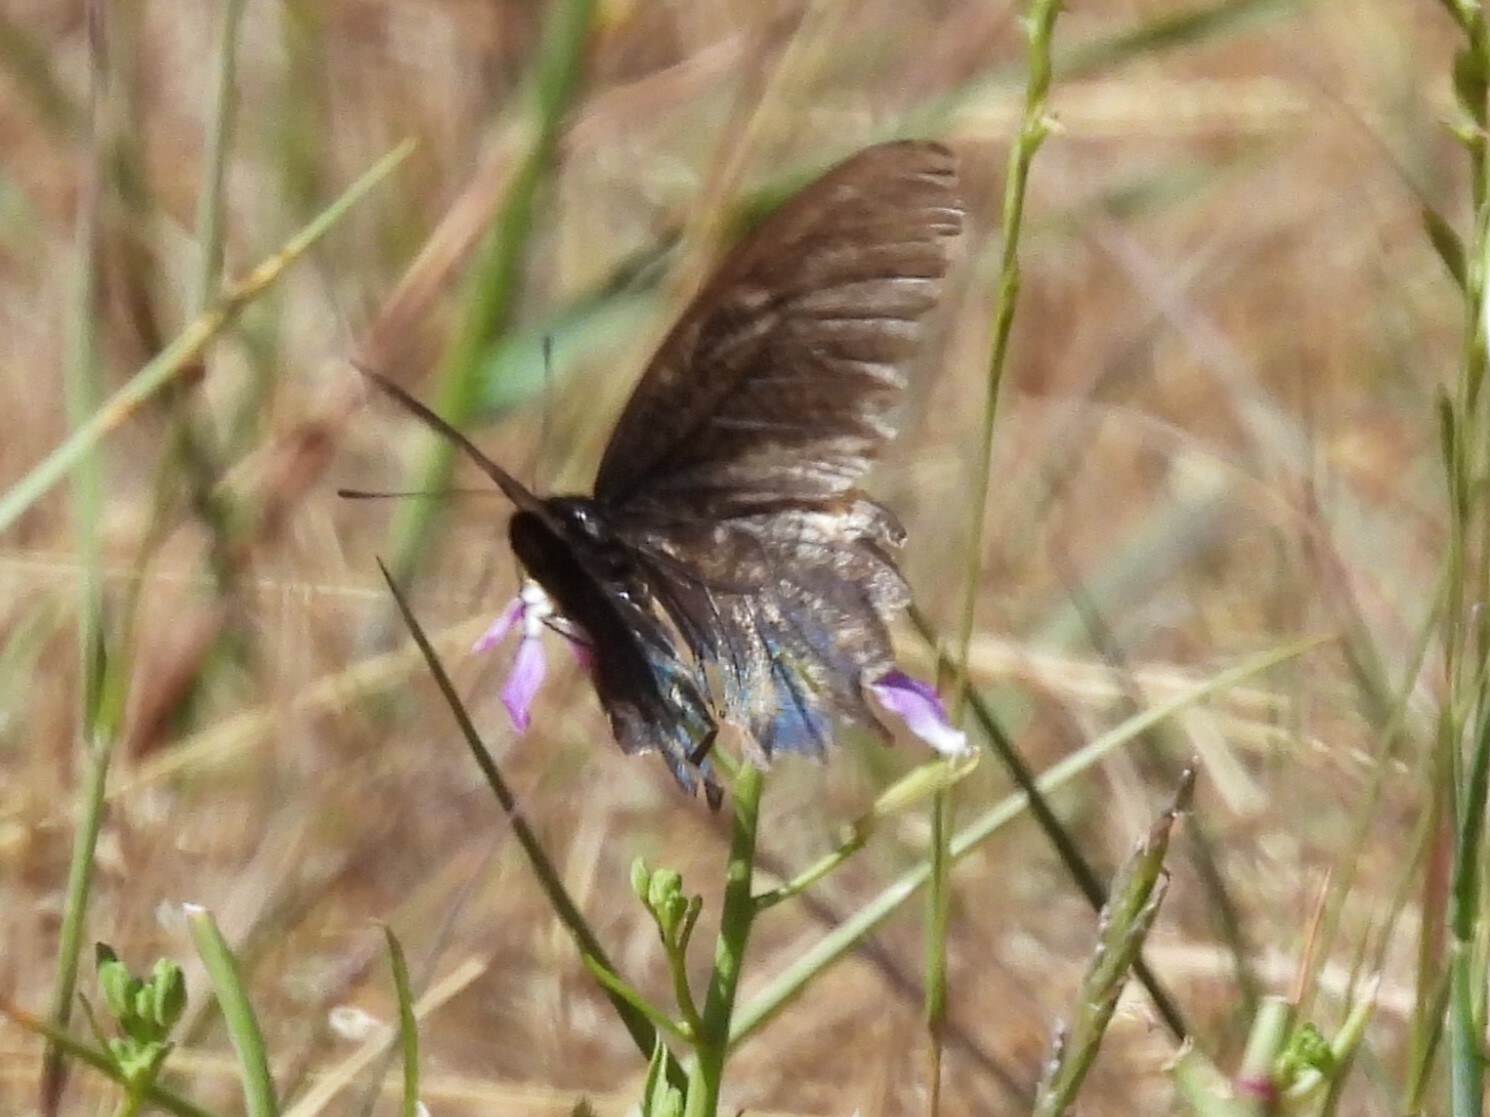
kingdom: Animalia
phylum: Arthropoda
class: Insecta
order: Lepidoptera
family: Papilionidae
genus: Battus
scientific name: Battus philenor
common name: Pipevine swallowtail
